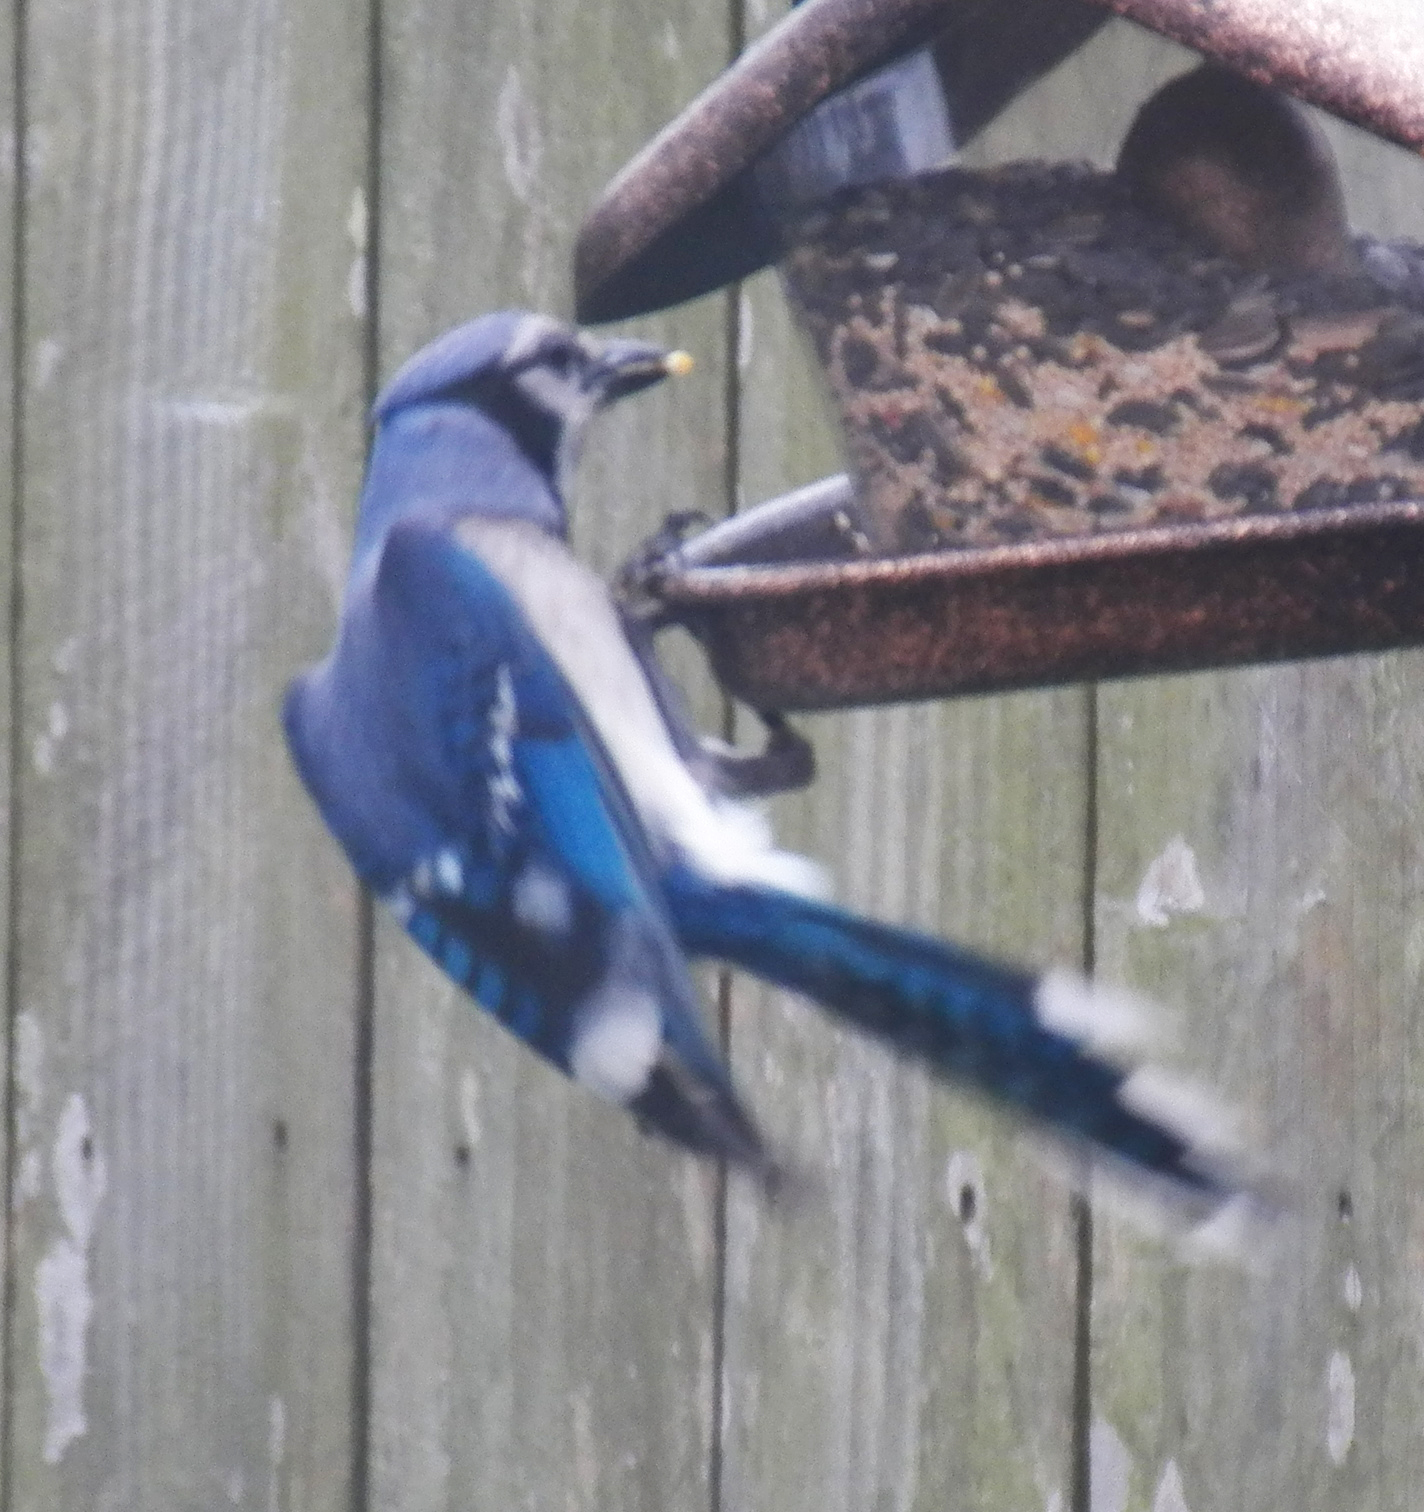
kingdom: Animalia
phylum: Chordata
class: Aves
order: Passeriformes
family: Corvidae
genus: Cyanocitta
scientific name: Cyanocitta cristata
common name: Blue jay
